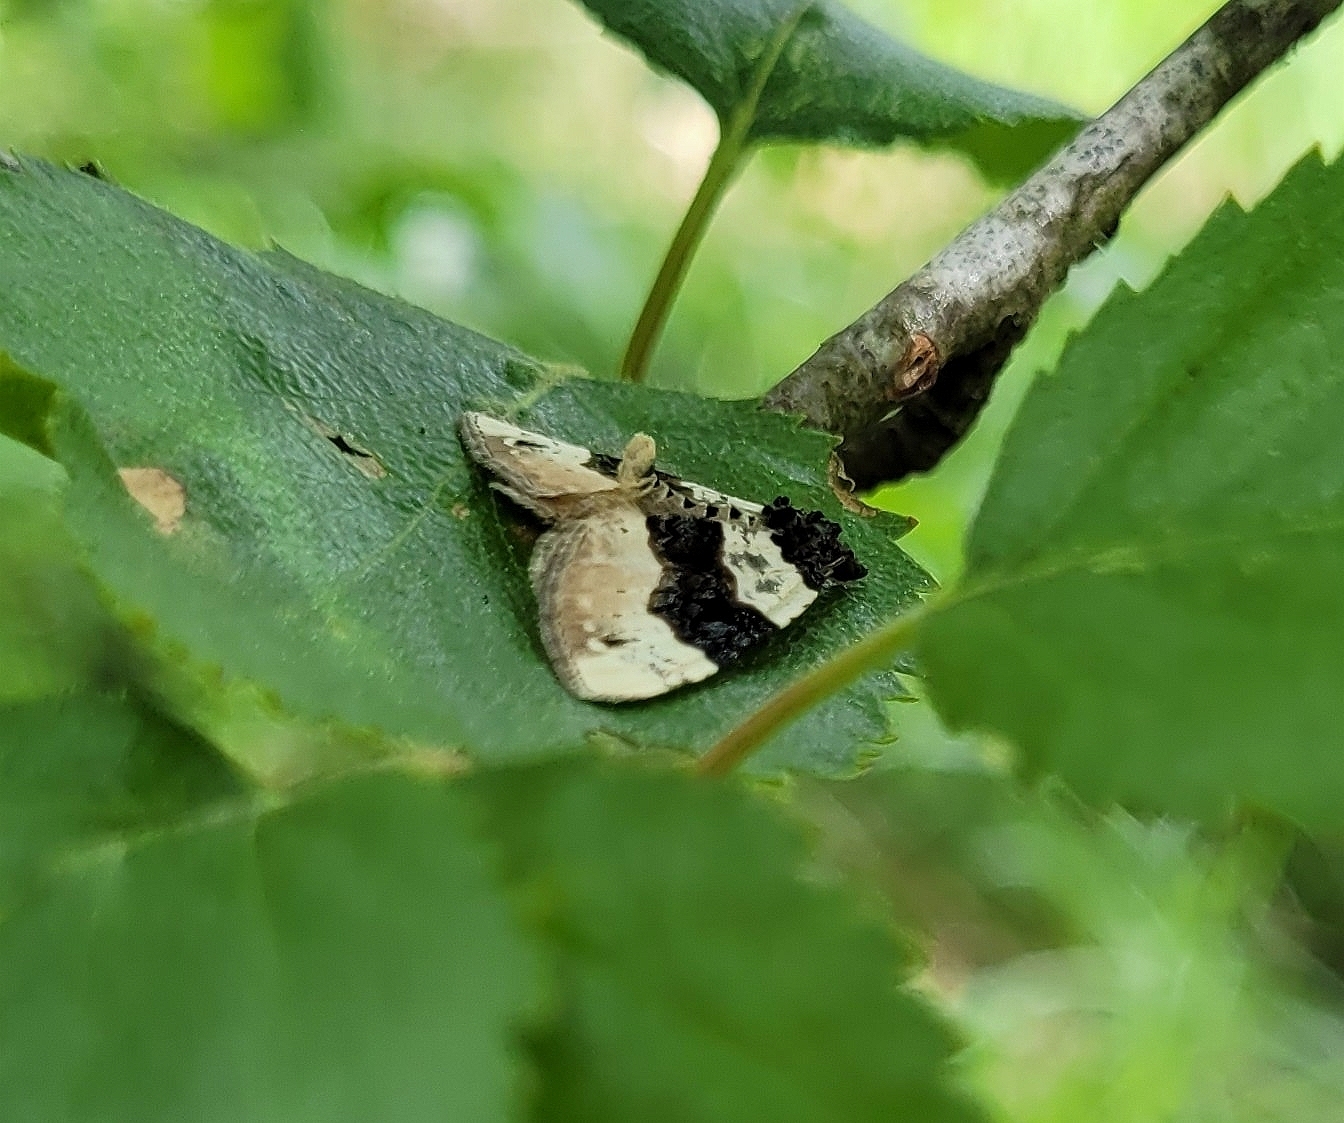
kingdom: Animalia
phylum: Arthropoda
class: Insecta
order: Lepidoptera
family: Geometridae
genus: Cosmorhoe
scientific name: Cosmorhoe ocellata
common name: Purple bar
